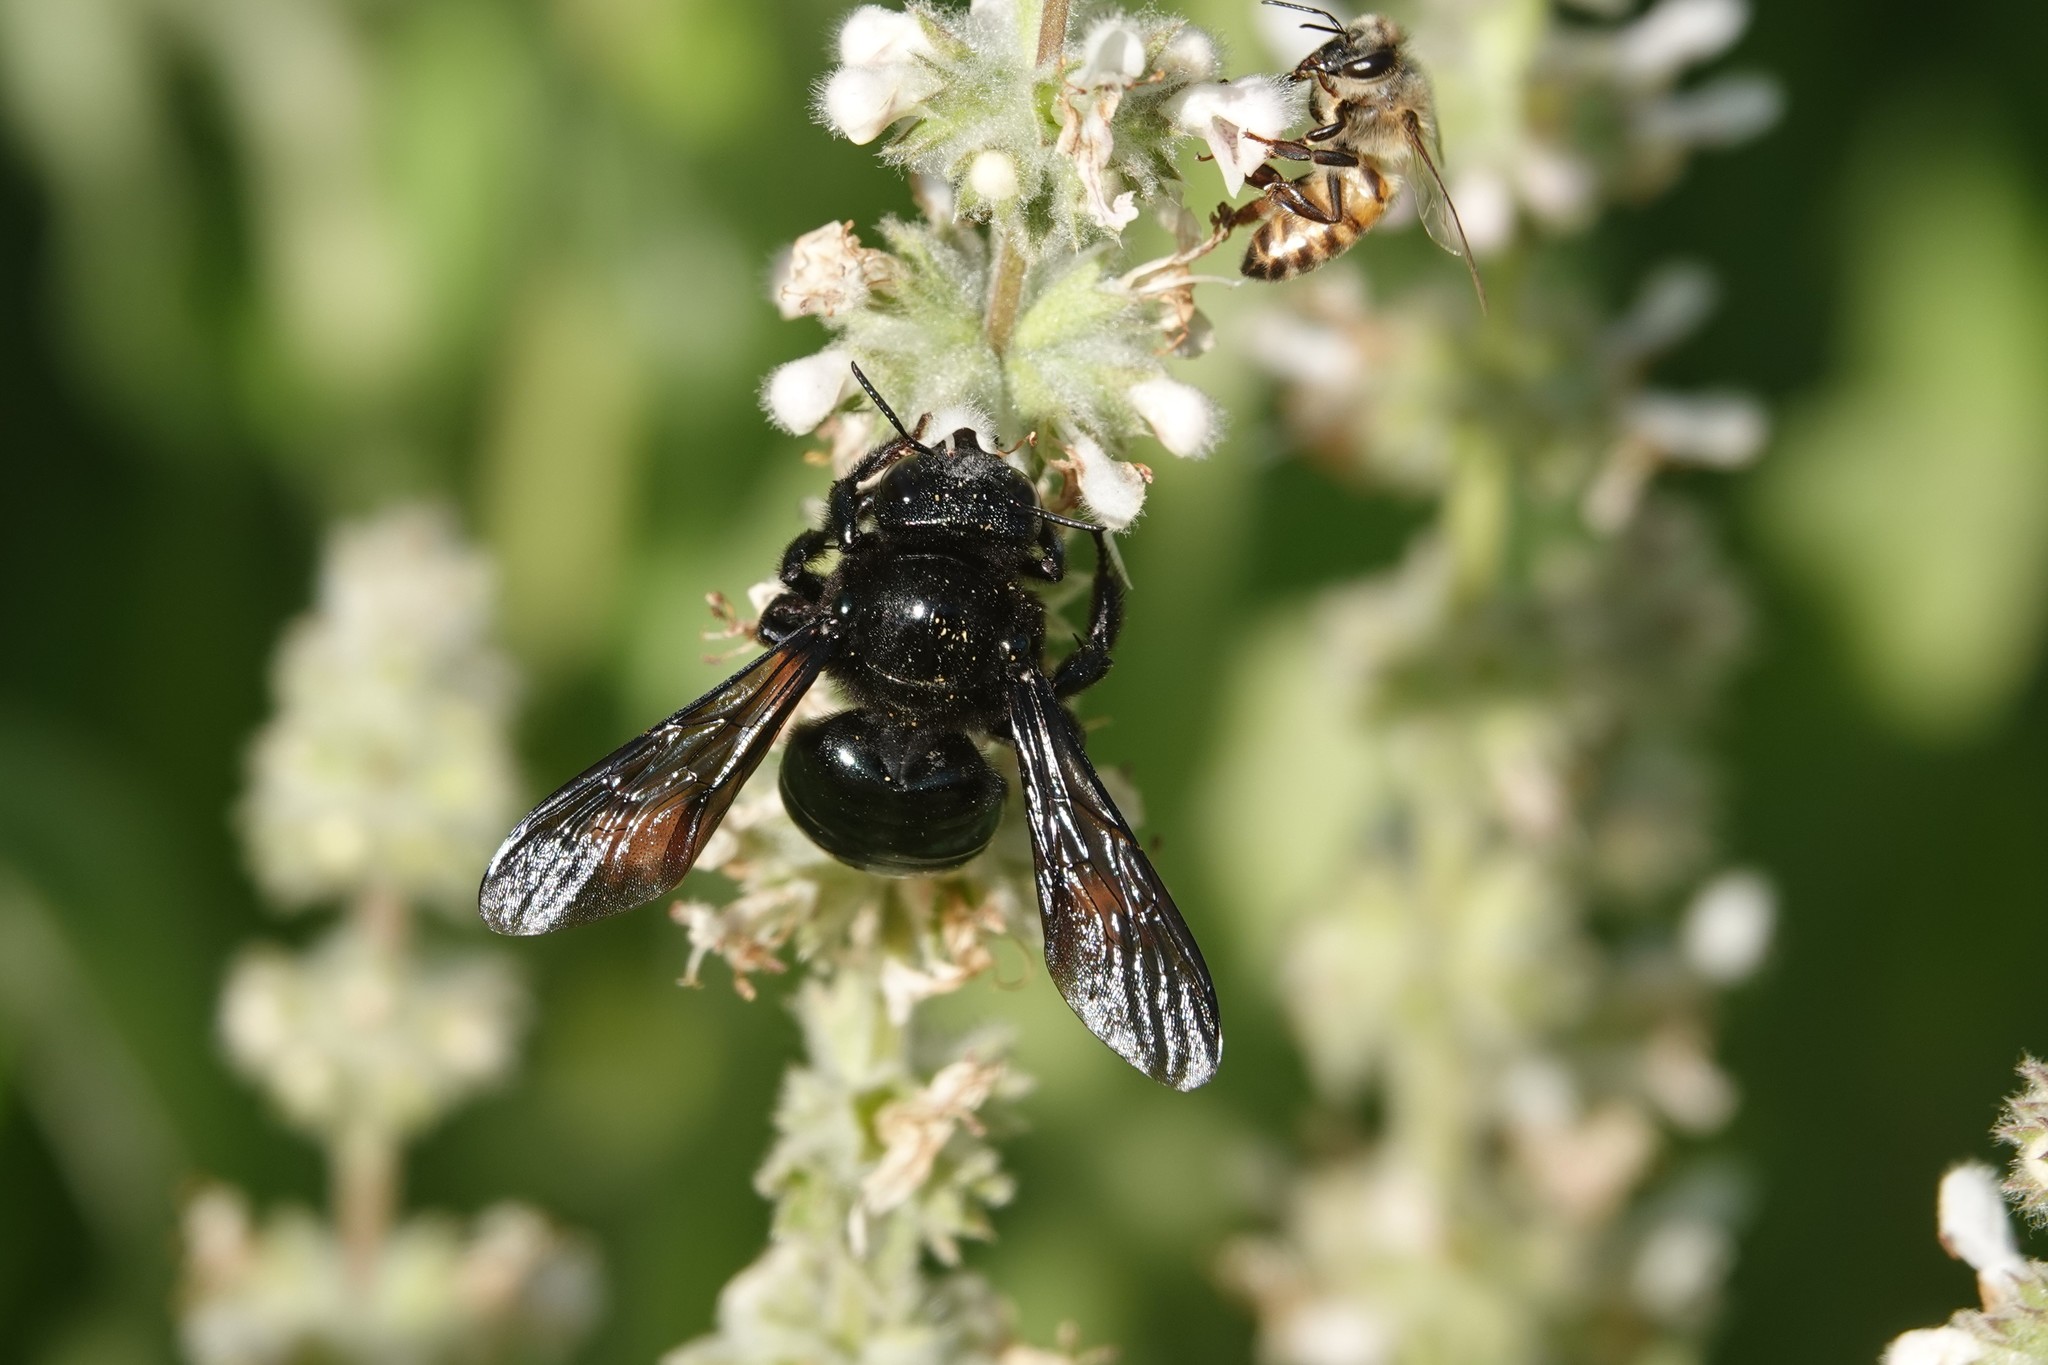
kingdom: Animalia
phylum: Arthropoda
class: Insecta
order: Hymenoptera
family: Apidae
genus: Xylocopa
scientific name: Xylocopa californica
